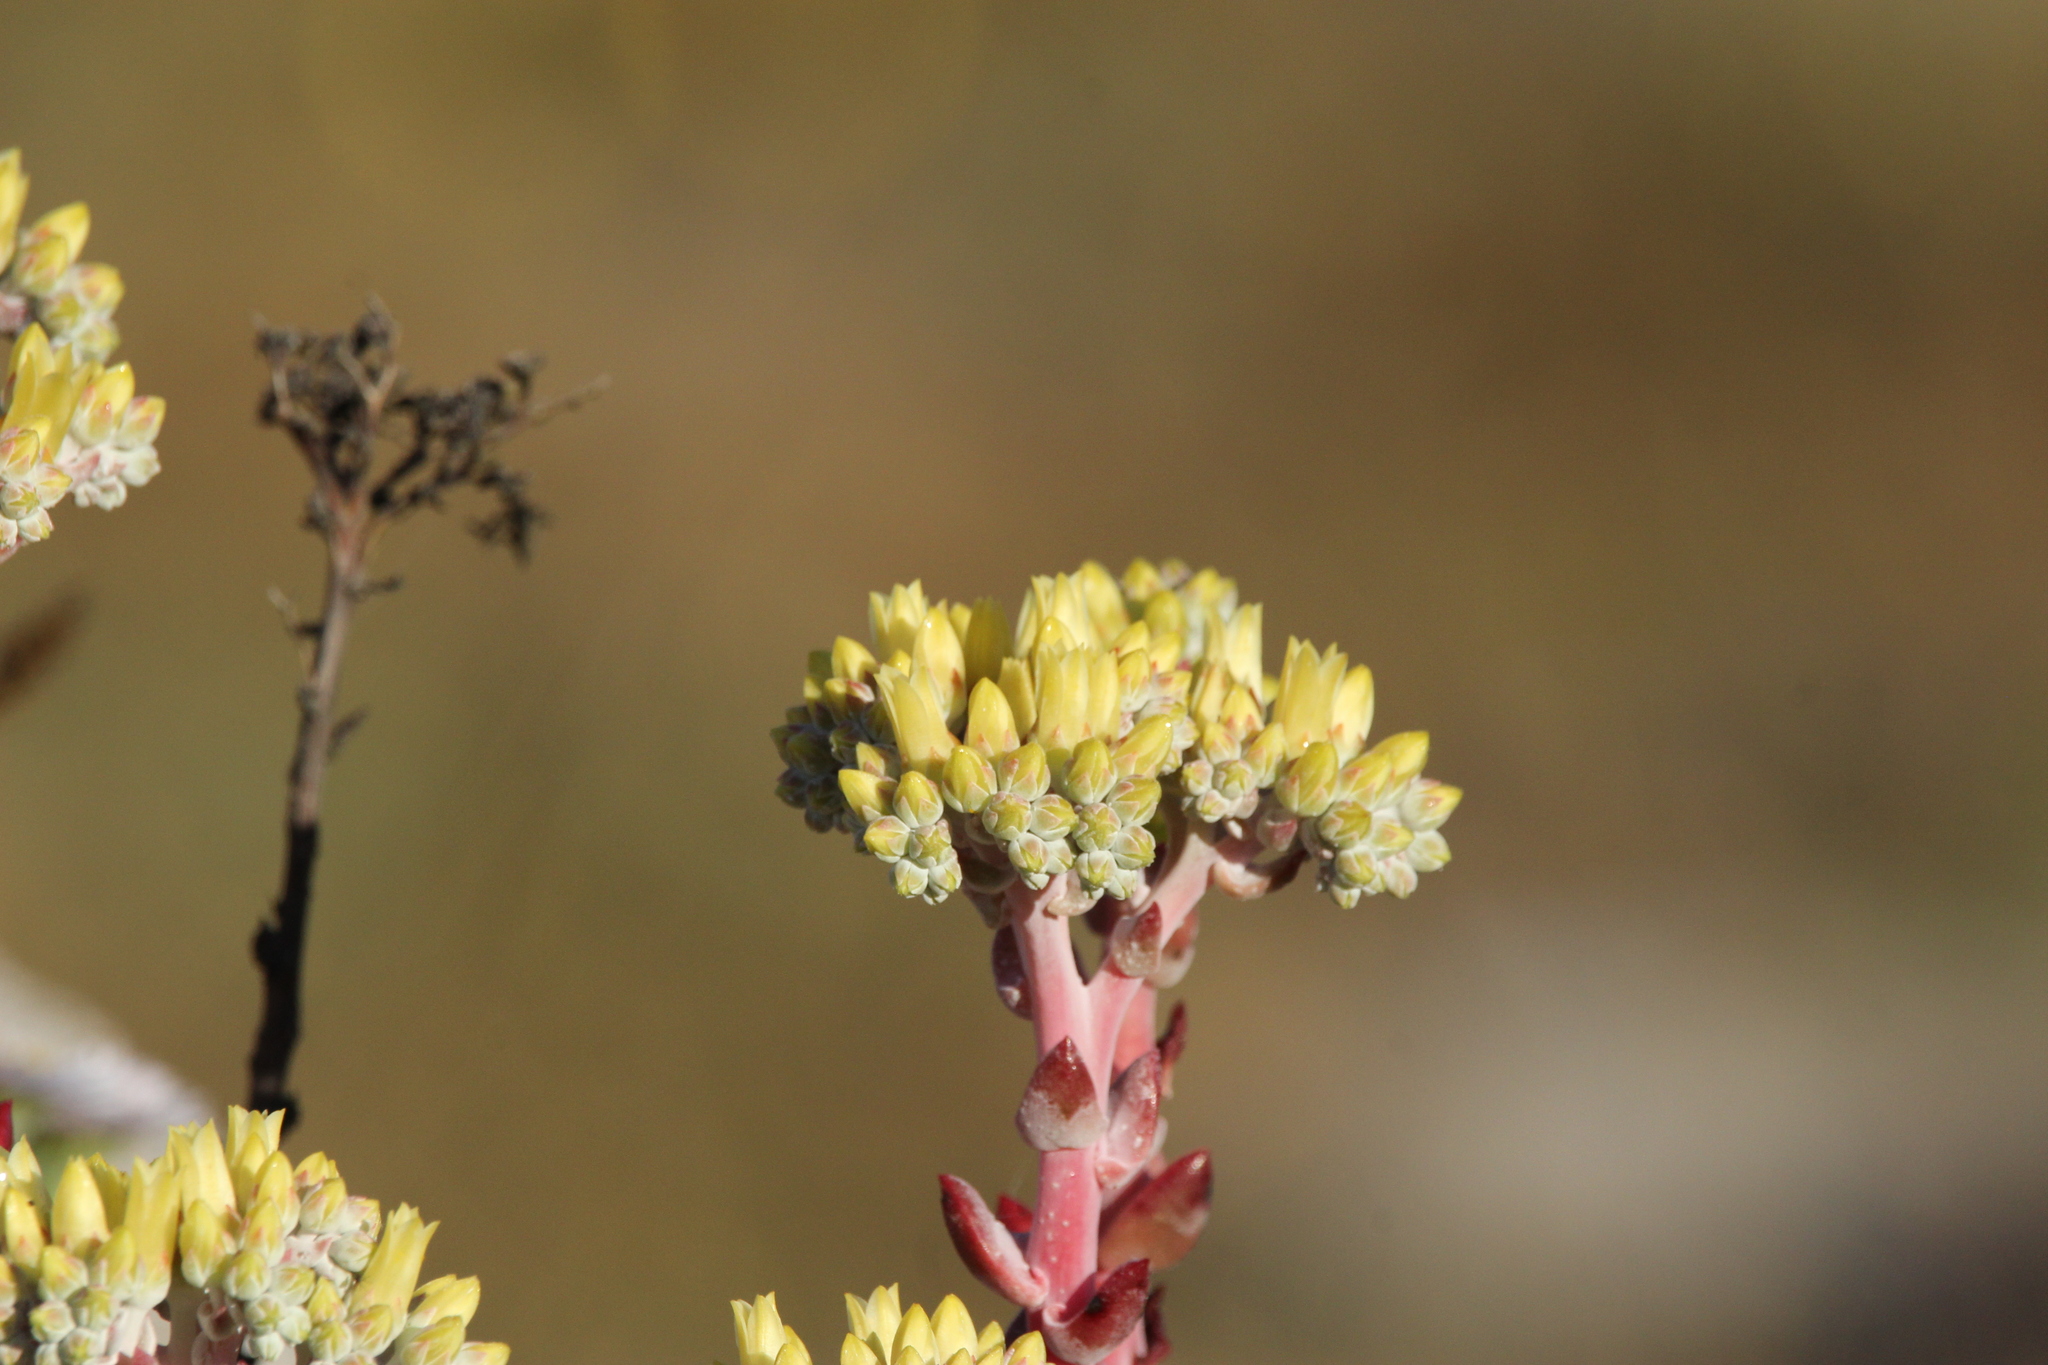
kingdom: Plantae
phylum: Tracheophyta
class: Magnoliopsida
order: Saxifragales
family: Crassulaceae
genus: Dudleya
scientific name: Dudleya farinosa
